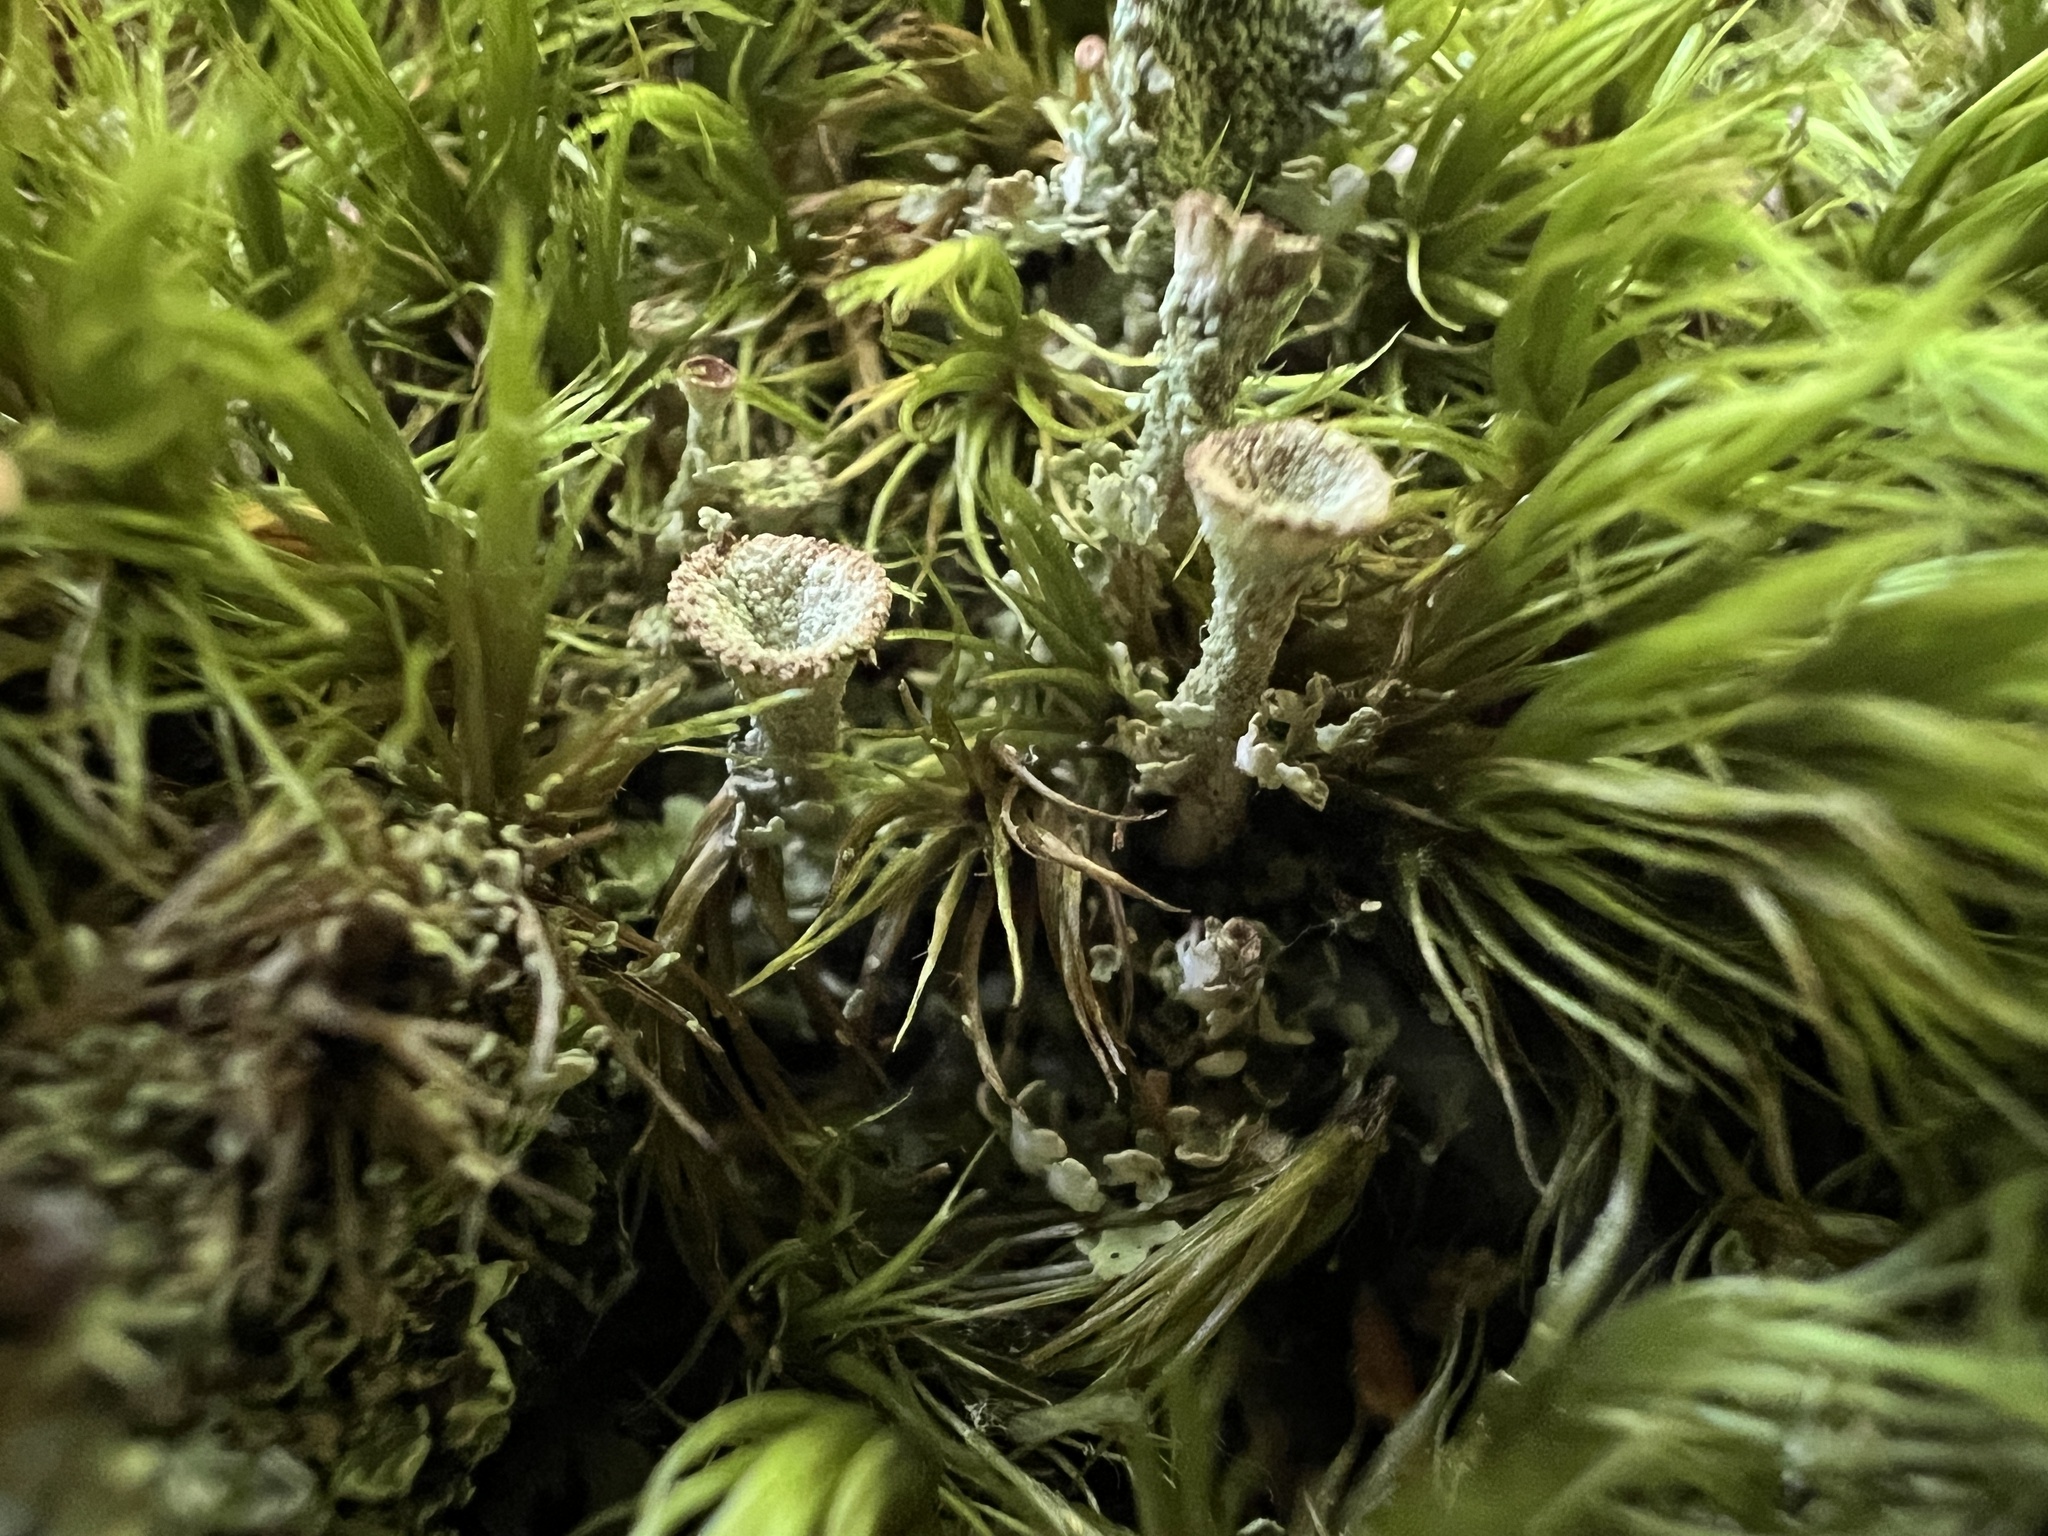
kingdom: Fungi
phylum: Ascomycota
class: Lecanoromycetes
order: Lecanorales
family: Cladoniaceae
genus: Cladonia
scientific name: Cladonia pyxidata
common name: Pebbled pixie cup
